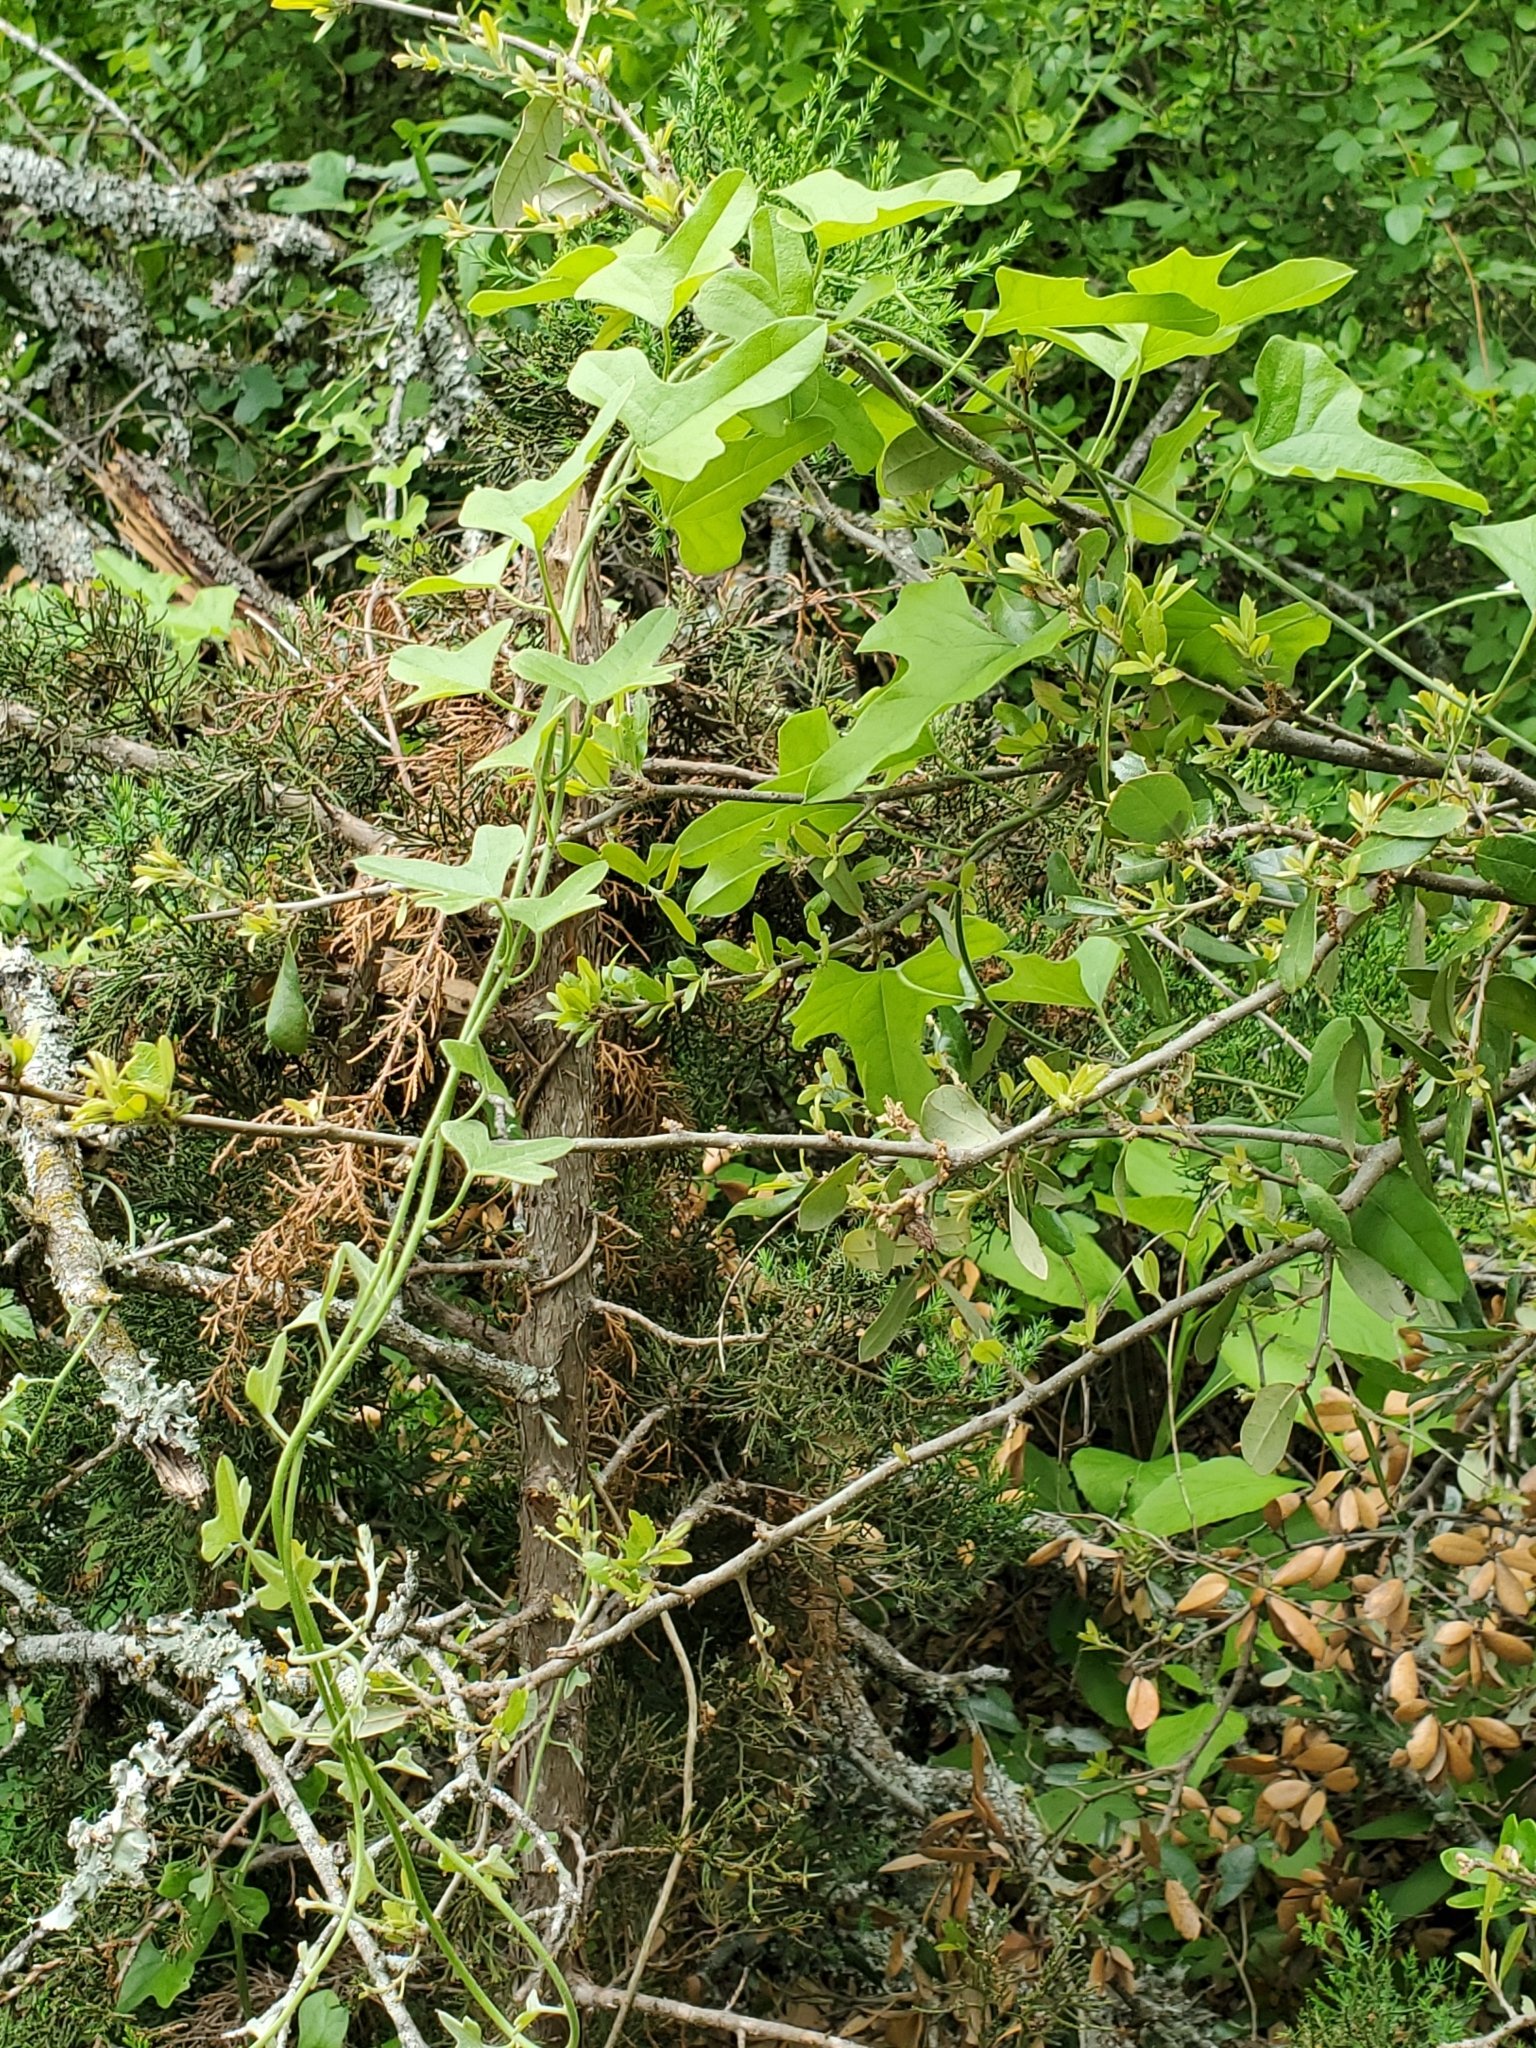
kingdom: Plantae
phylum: Tracheophyta
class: Magnoliopsida
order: Ranunculales
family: Menispermaceae
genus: Cocculus
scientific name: Cocculus carolinus
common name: Carolina moonseed
